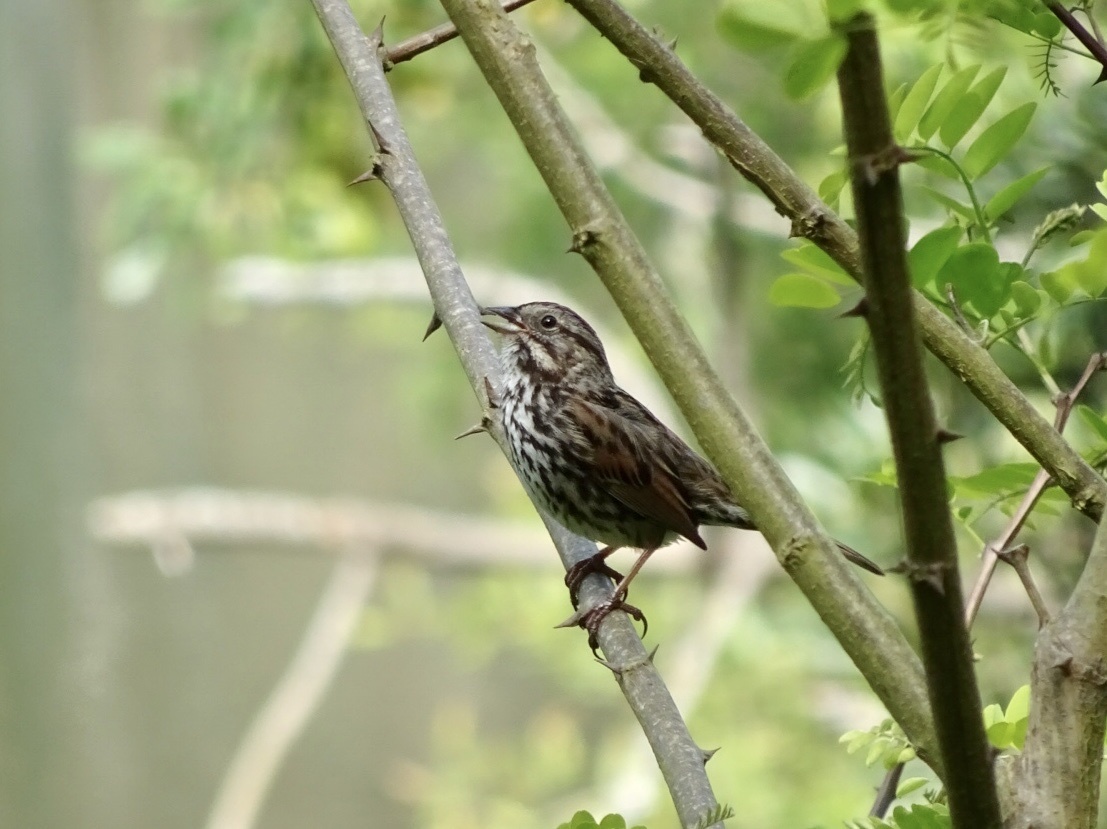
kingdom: Animalia
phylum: Chordata
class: Aves
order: Passeriformes
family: Passerellidae
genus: Melospiza
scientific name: Melospiza melodia
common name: Song sparrow
